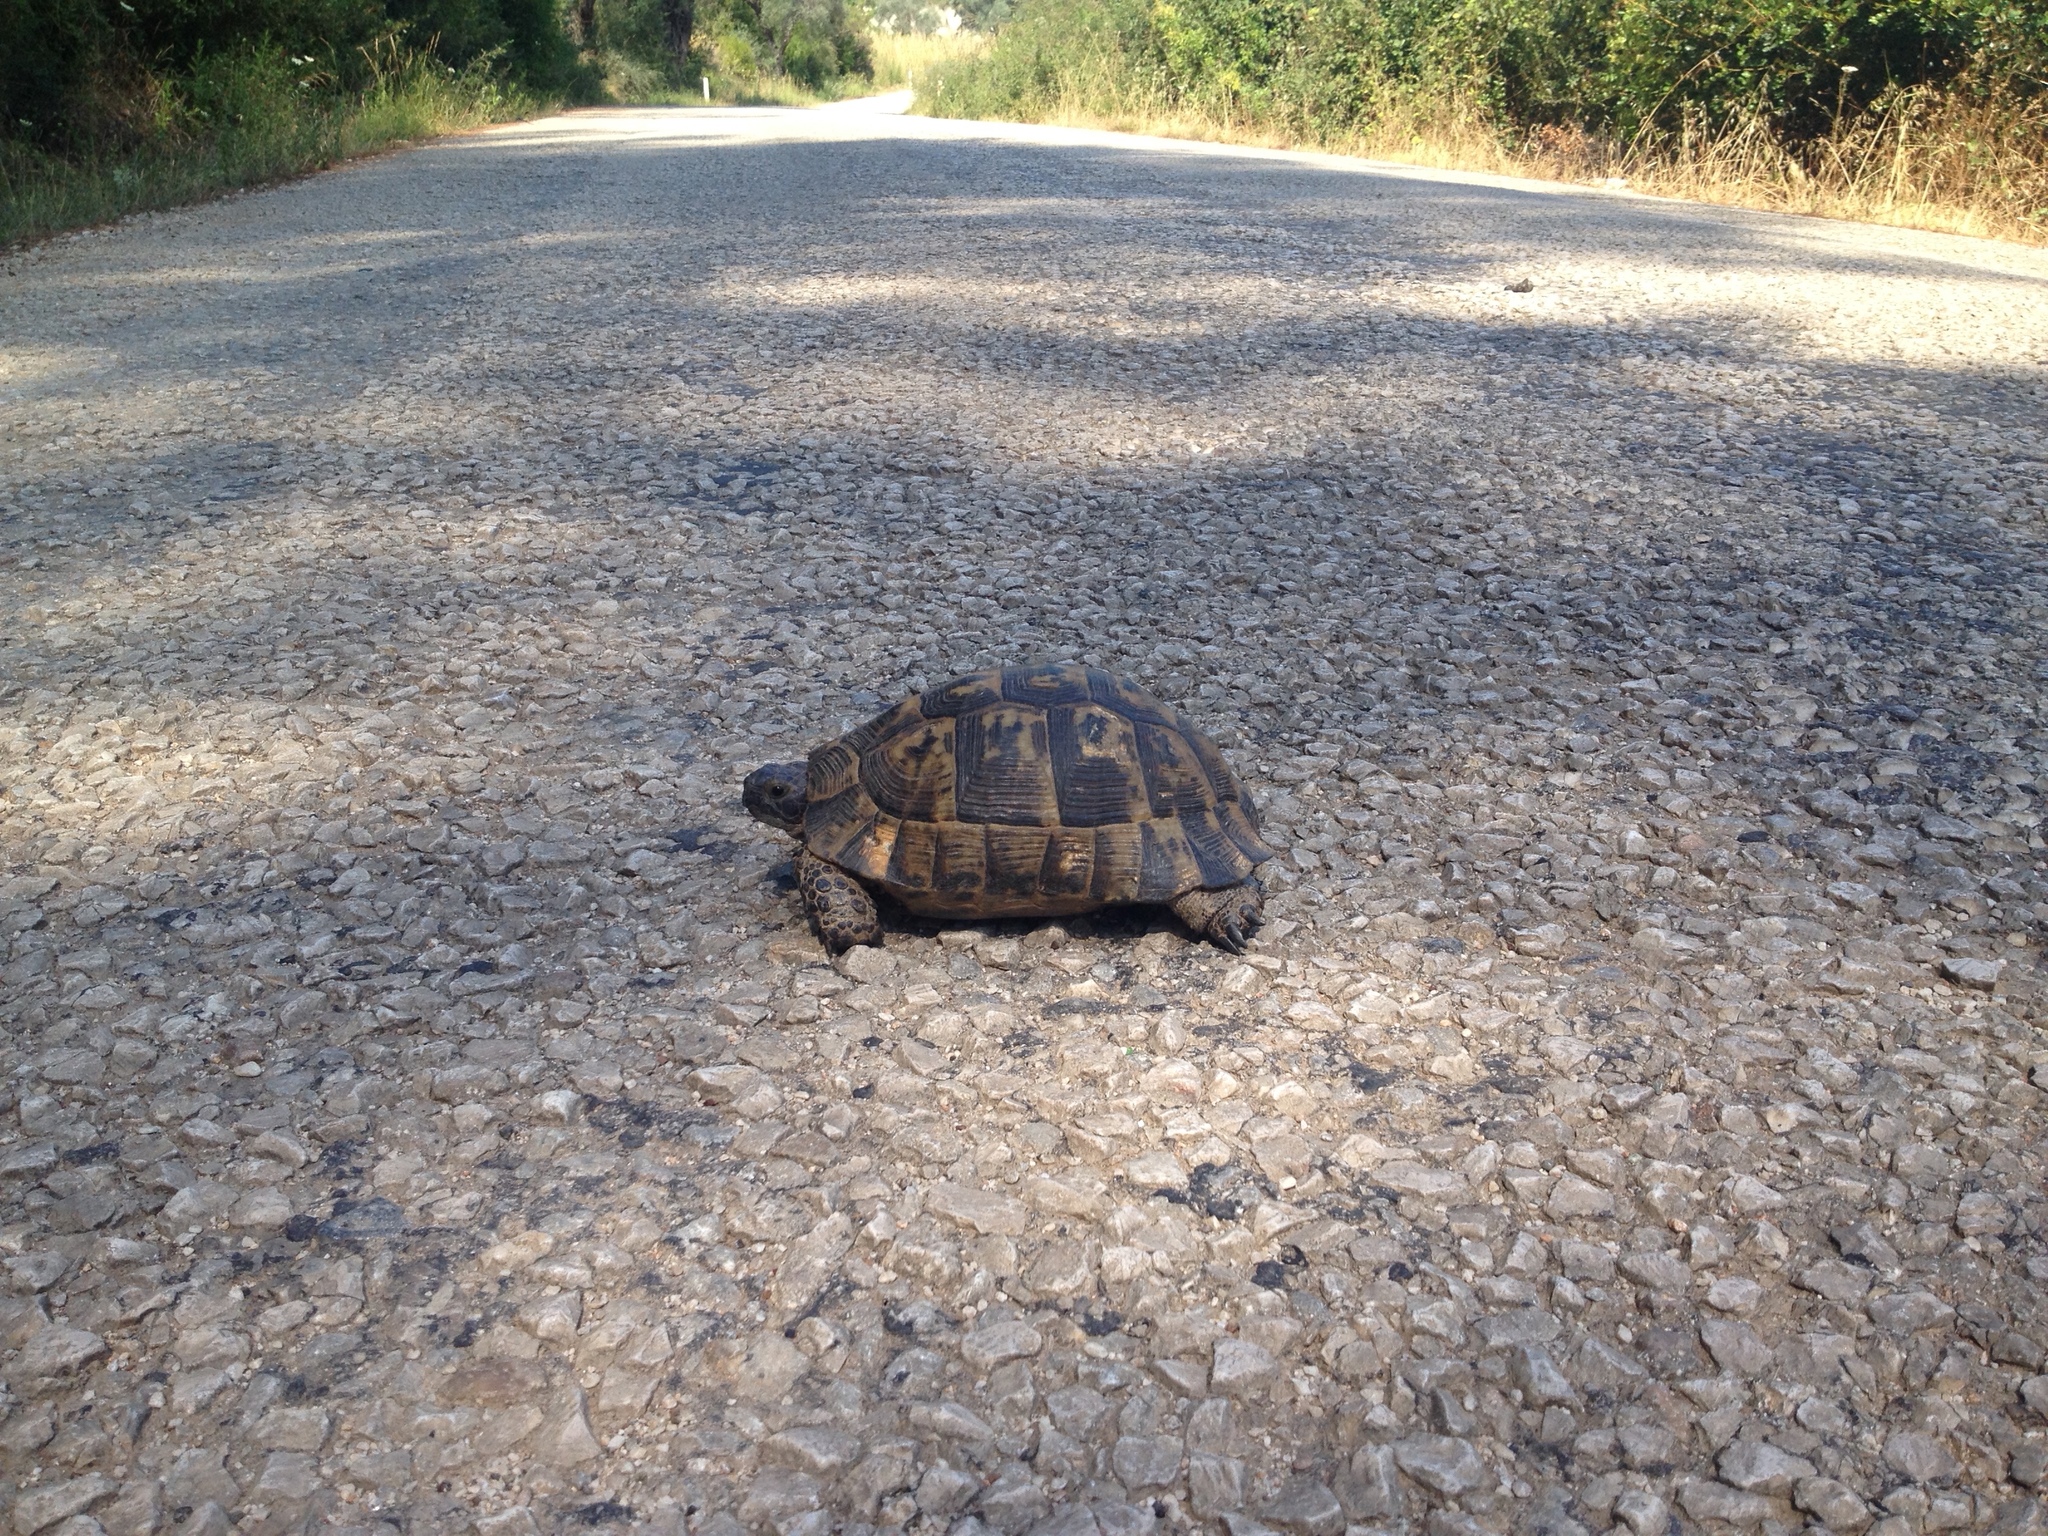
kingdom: Animalia
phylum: Chordata
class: Testudines
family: Testudinidae
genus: Testudo
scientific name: Testudo graeca
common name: Common tortoise
